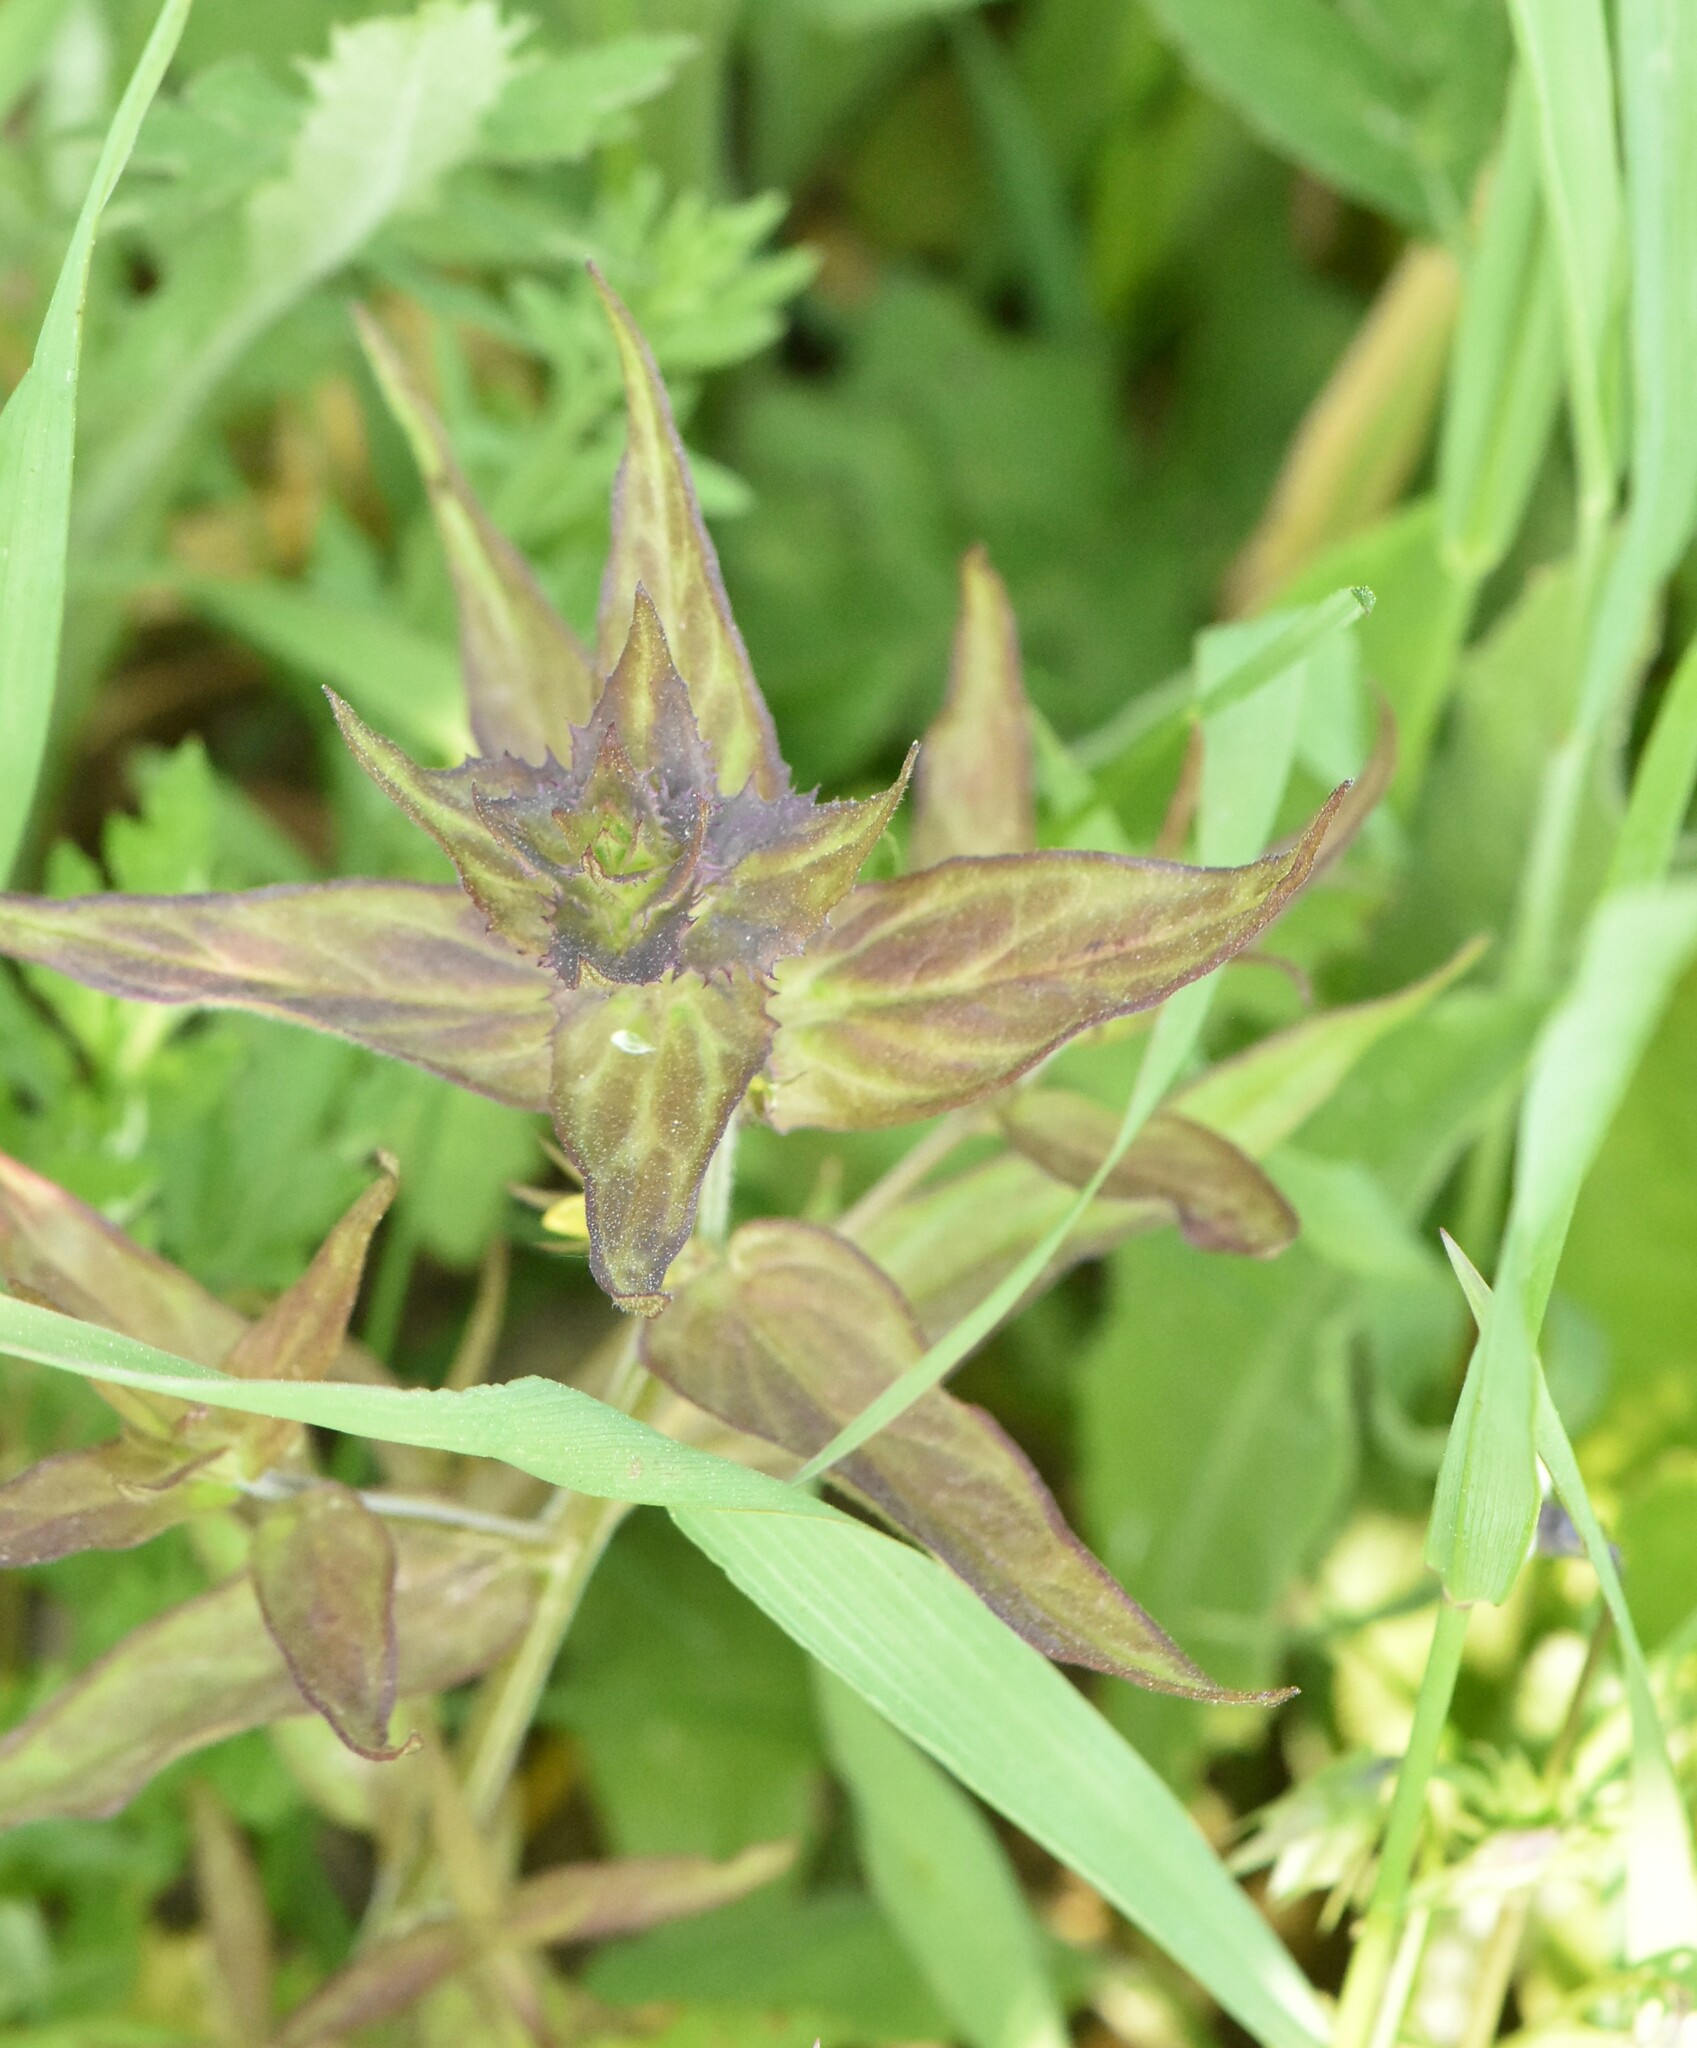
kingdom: Plantae
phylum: Tracheophyta
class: Magnoliopsida
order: Lamiales
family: Orobanchaceae
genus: Melampyrum
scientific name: Melampyrum nemorosum
